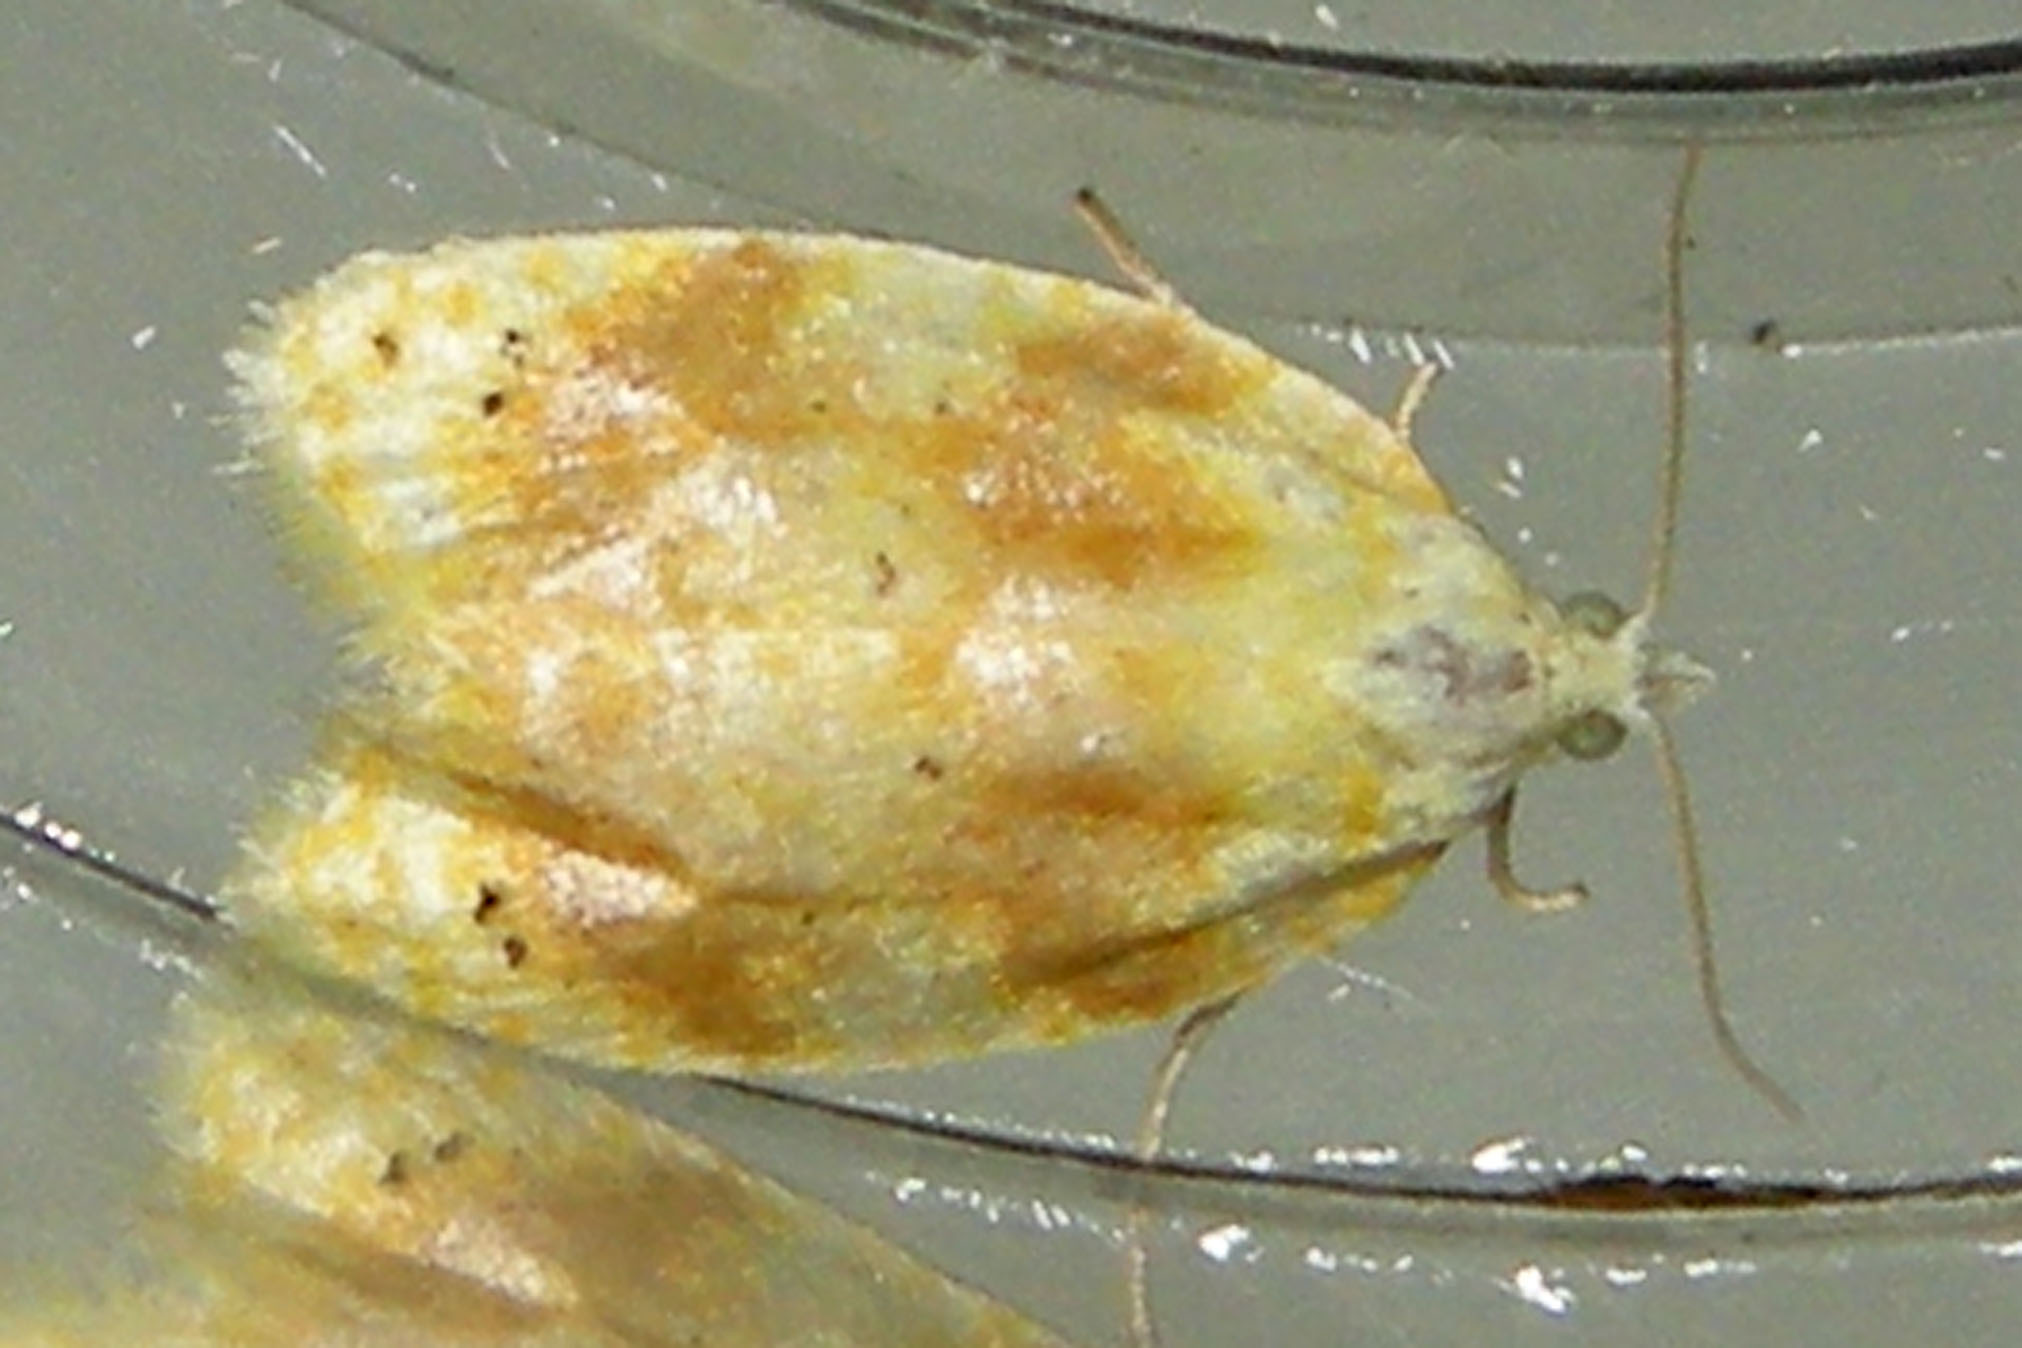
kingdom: Animalia
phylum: Arthropoda
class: Insecta
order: Lepidoptera
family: Tortricidae
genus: Acleris
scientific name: Acleris semipurpurana
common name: Oak leaftier moth
